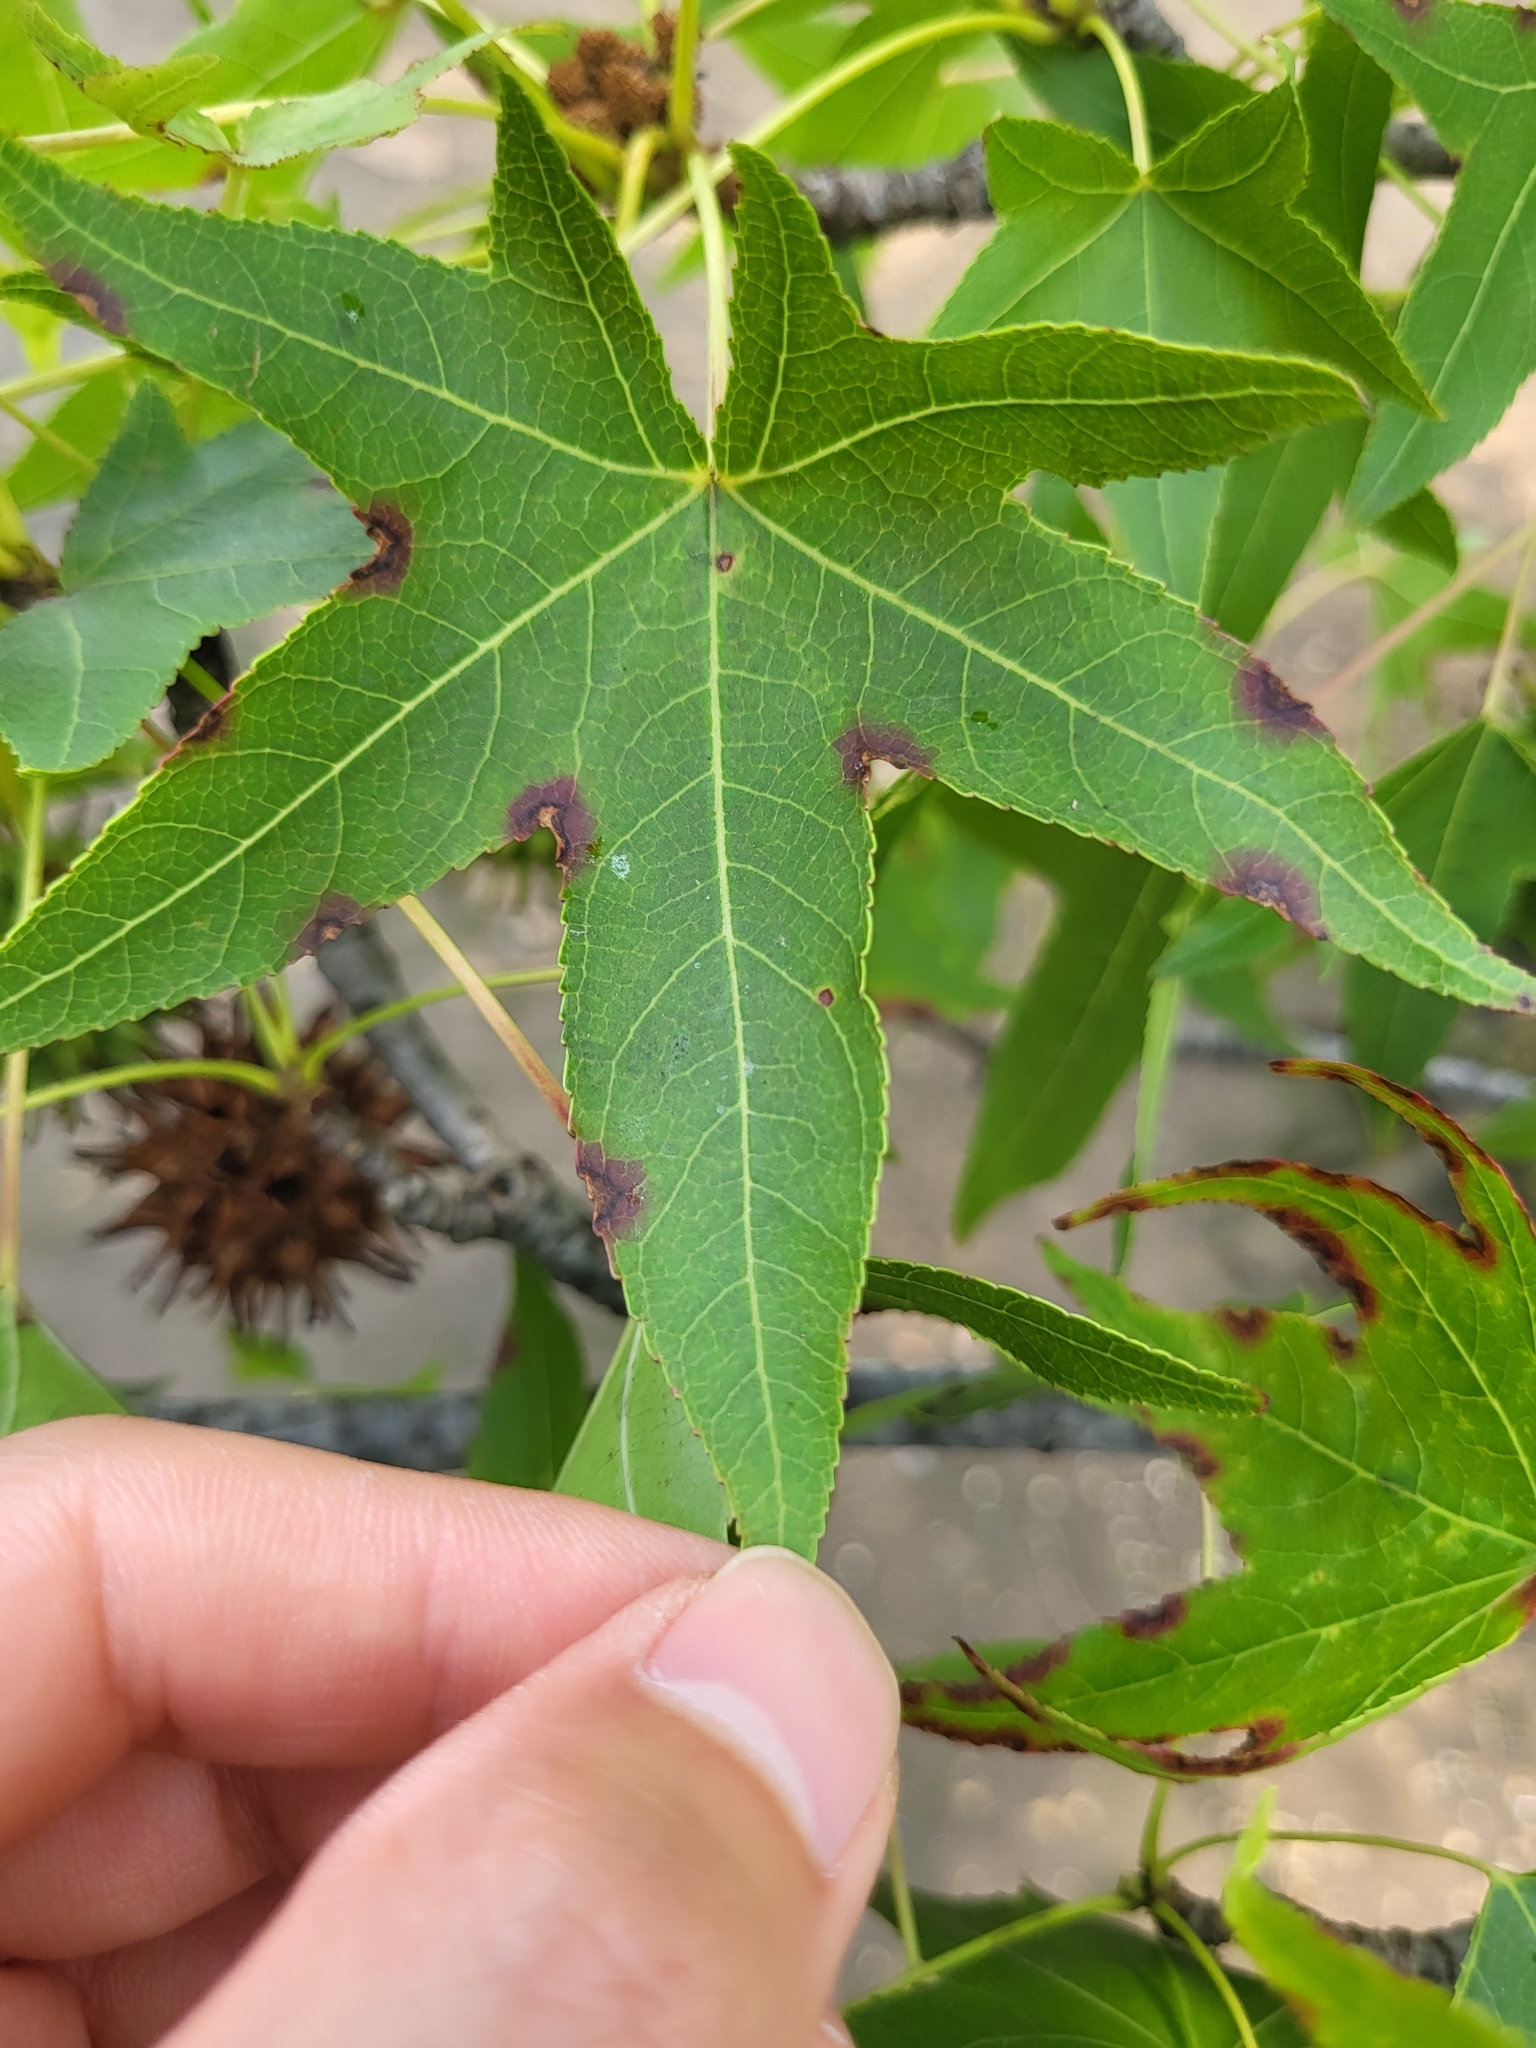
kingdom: Fungi
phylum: Ascomycota
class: Dothideomycetes
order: Mycosphaerellales
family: Mycosphaerellaceae
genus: Pseudocercospora
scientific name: Pseudocercospora neoliquidambaris
